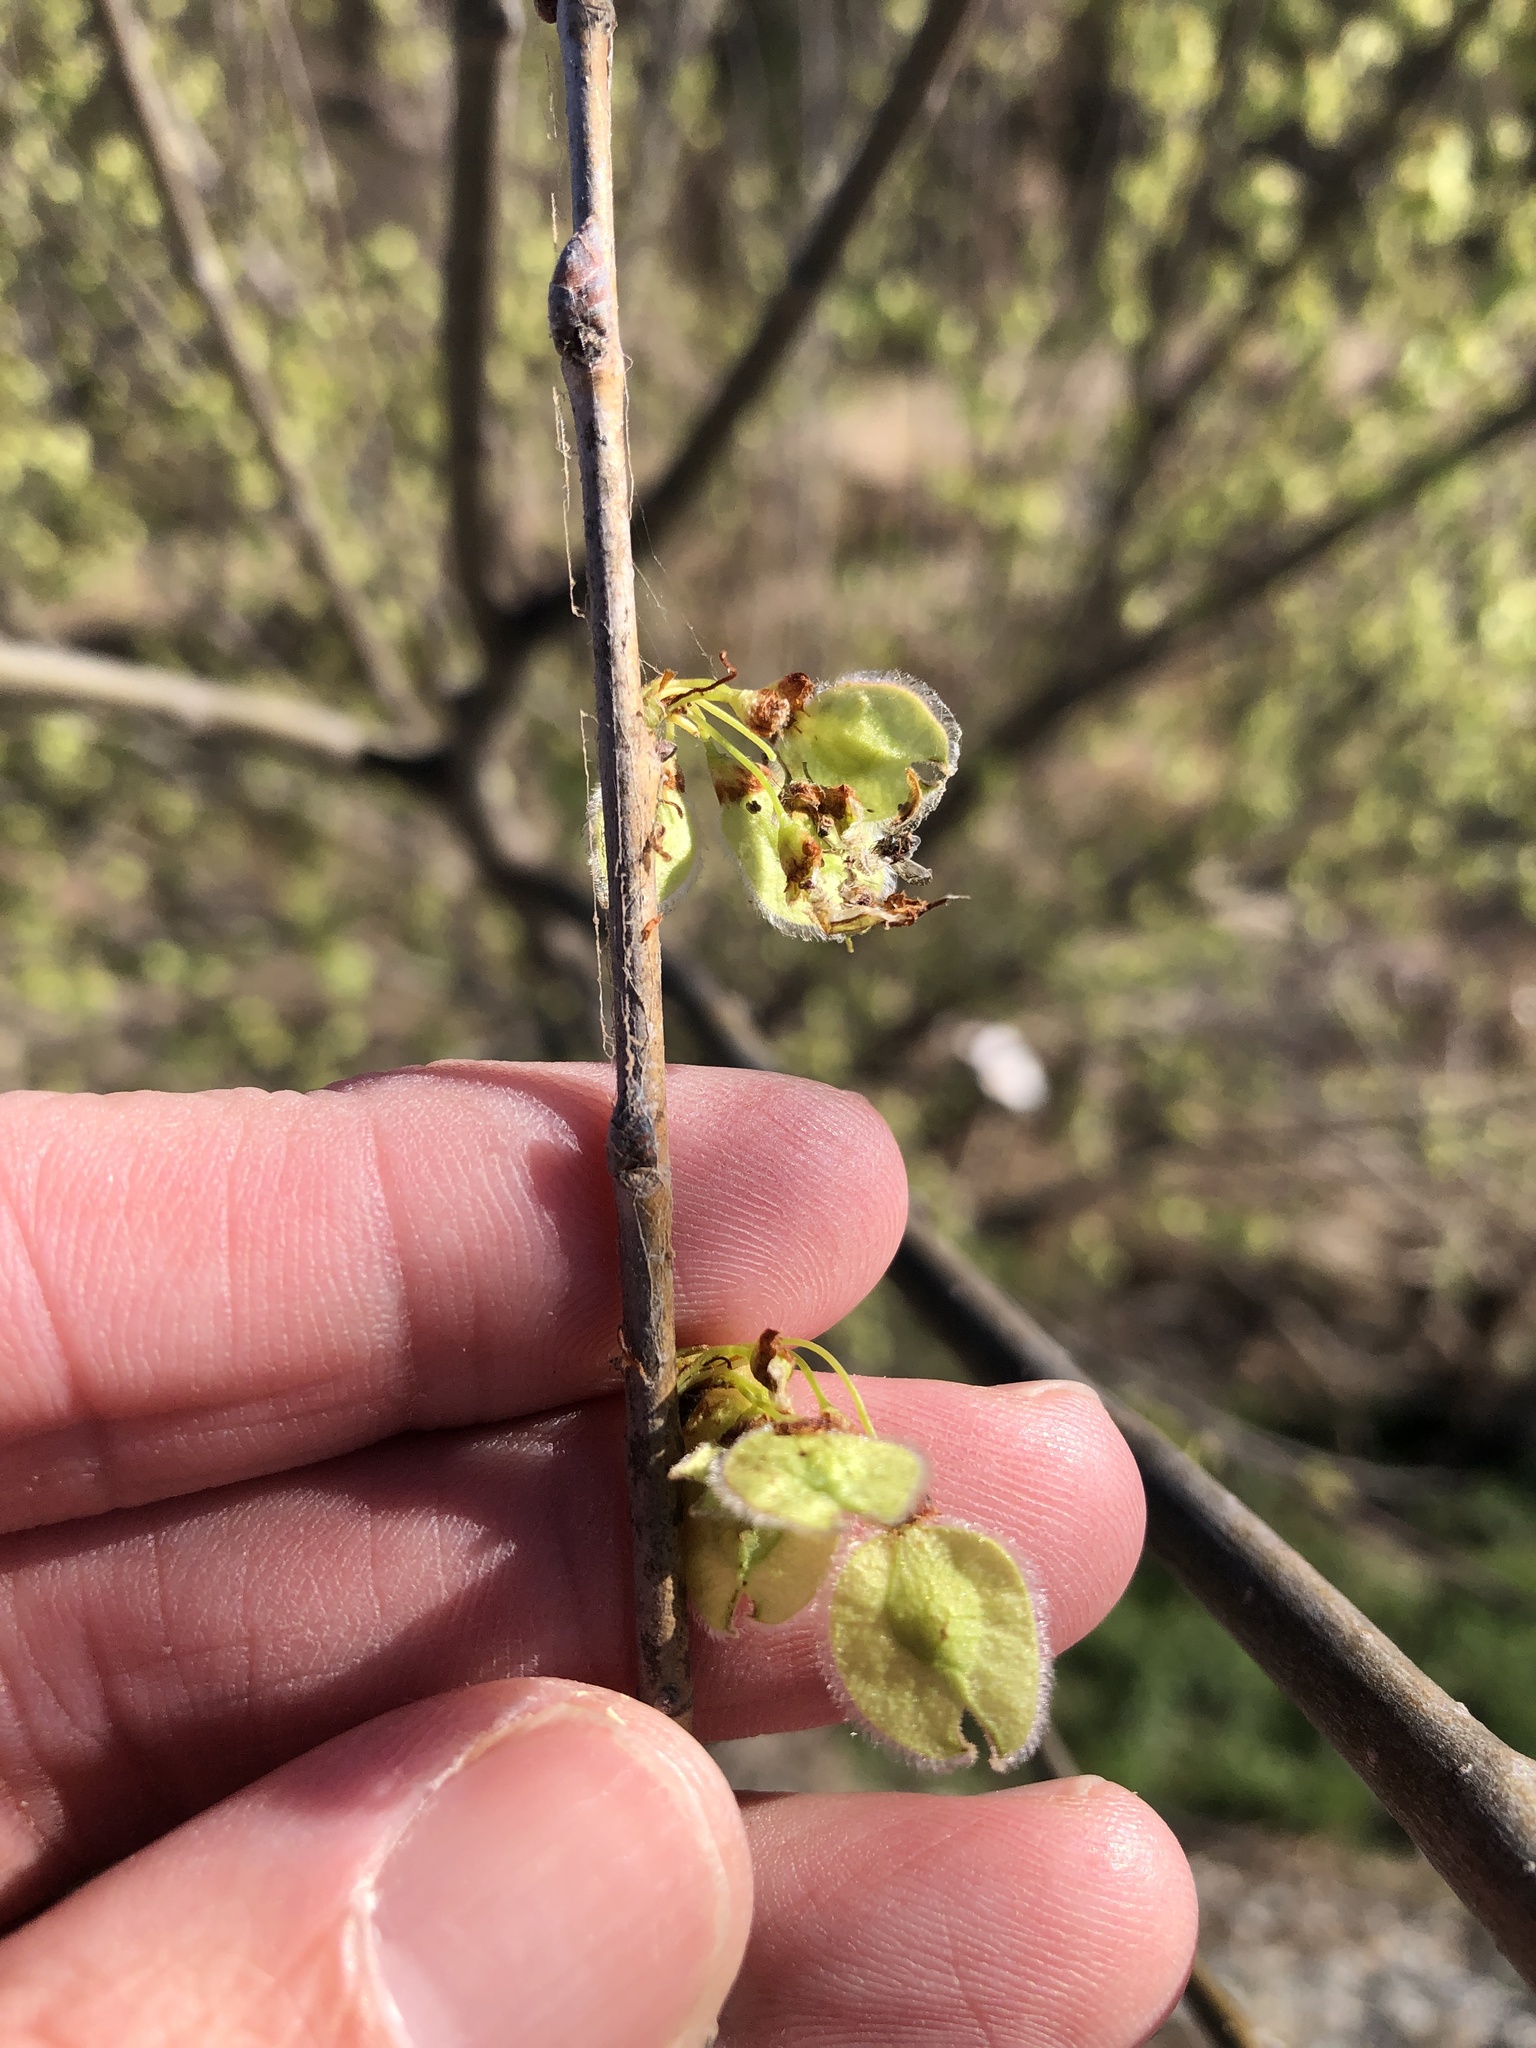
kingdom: Plantae
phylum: Tracheophyta
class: Magnoliopsida
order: Rosales
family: Ulmaceae
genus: Ulmus
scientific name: Ulmus americana
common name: American elm
